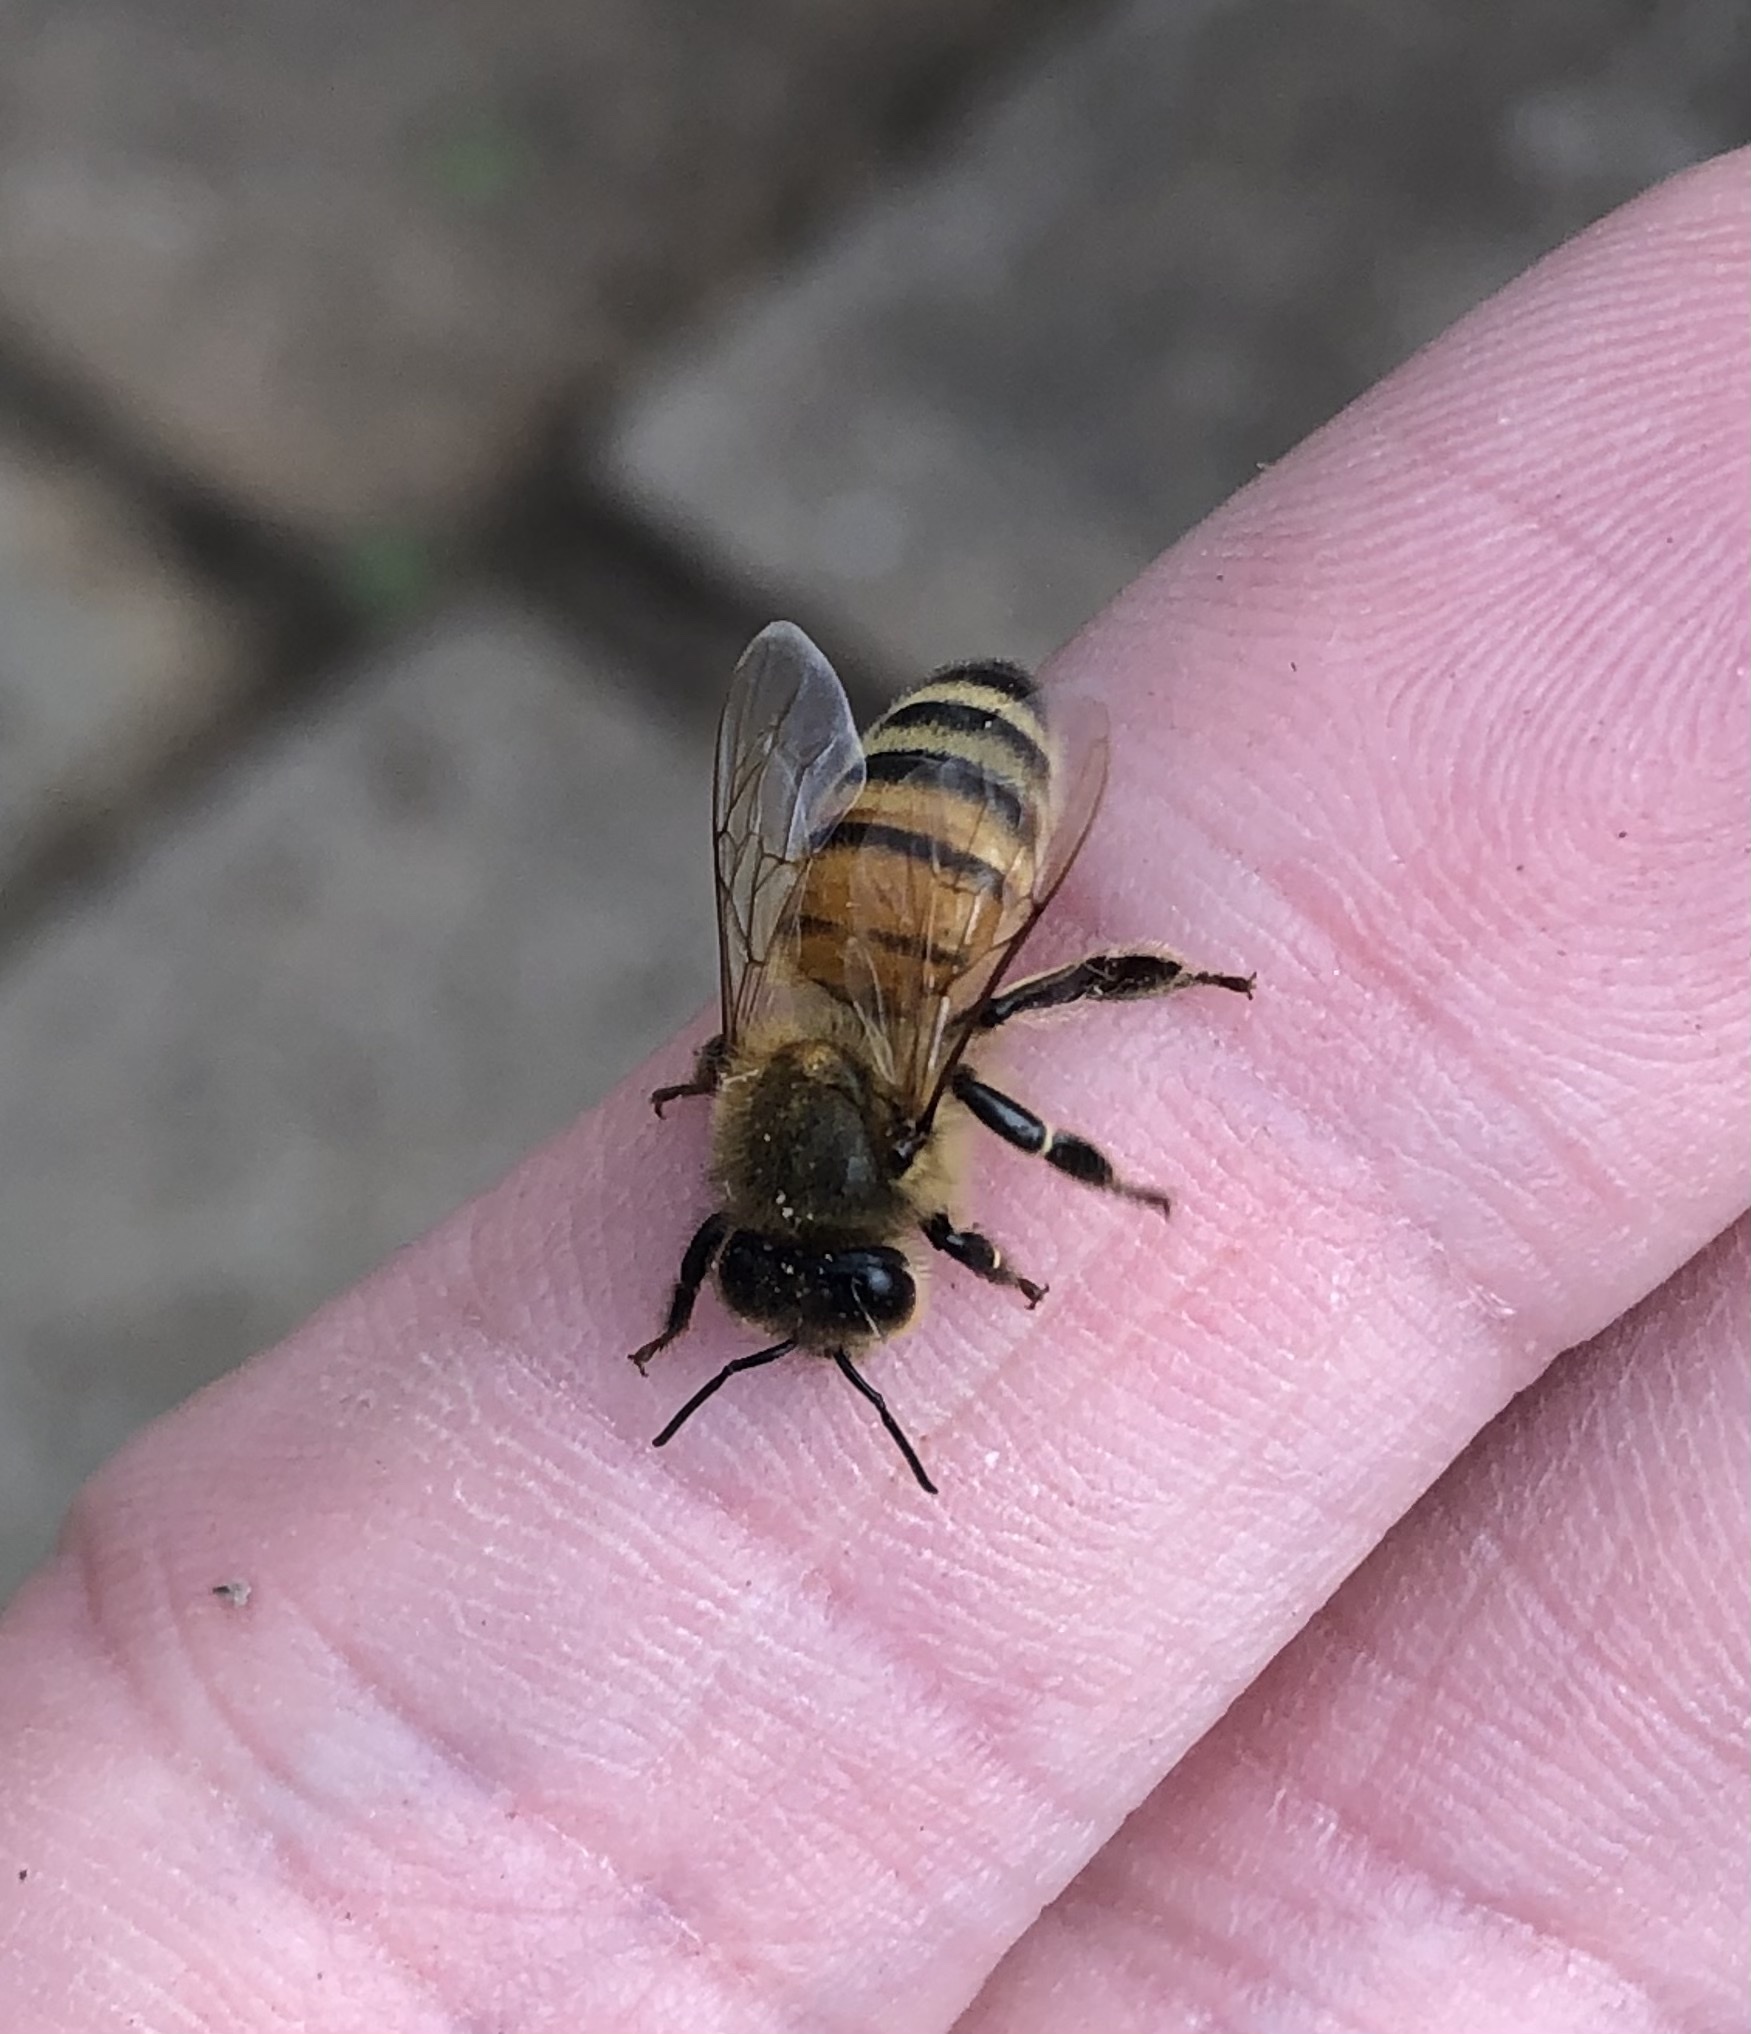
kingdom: Animalia
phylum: Arthropoda
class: Insecta
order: Hymenoptera
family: Apidae
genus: Apis
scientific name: Apis mellifera
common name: Honey bee
